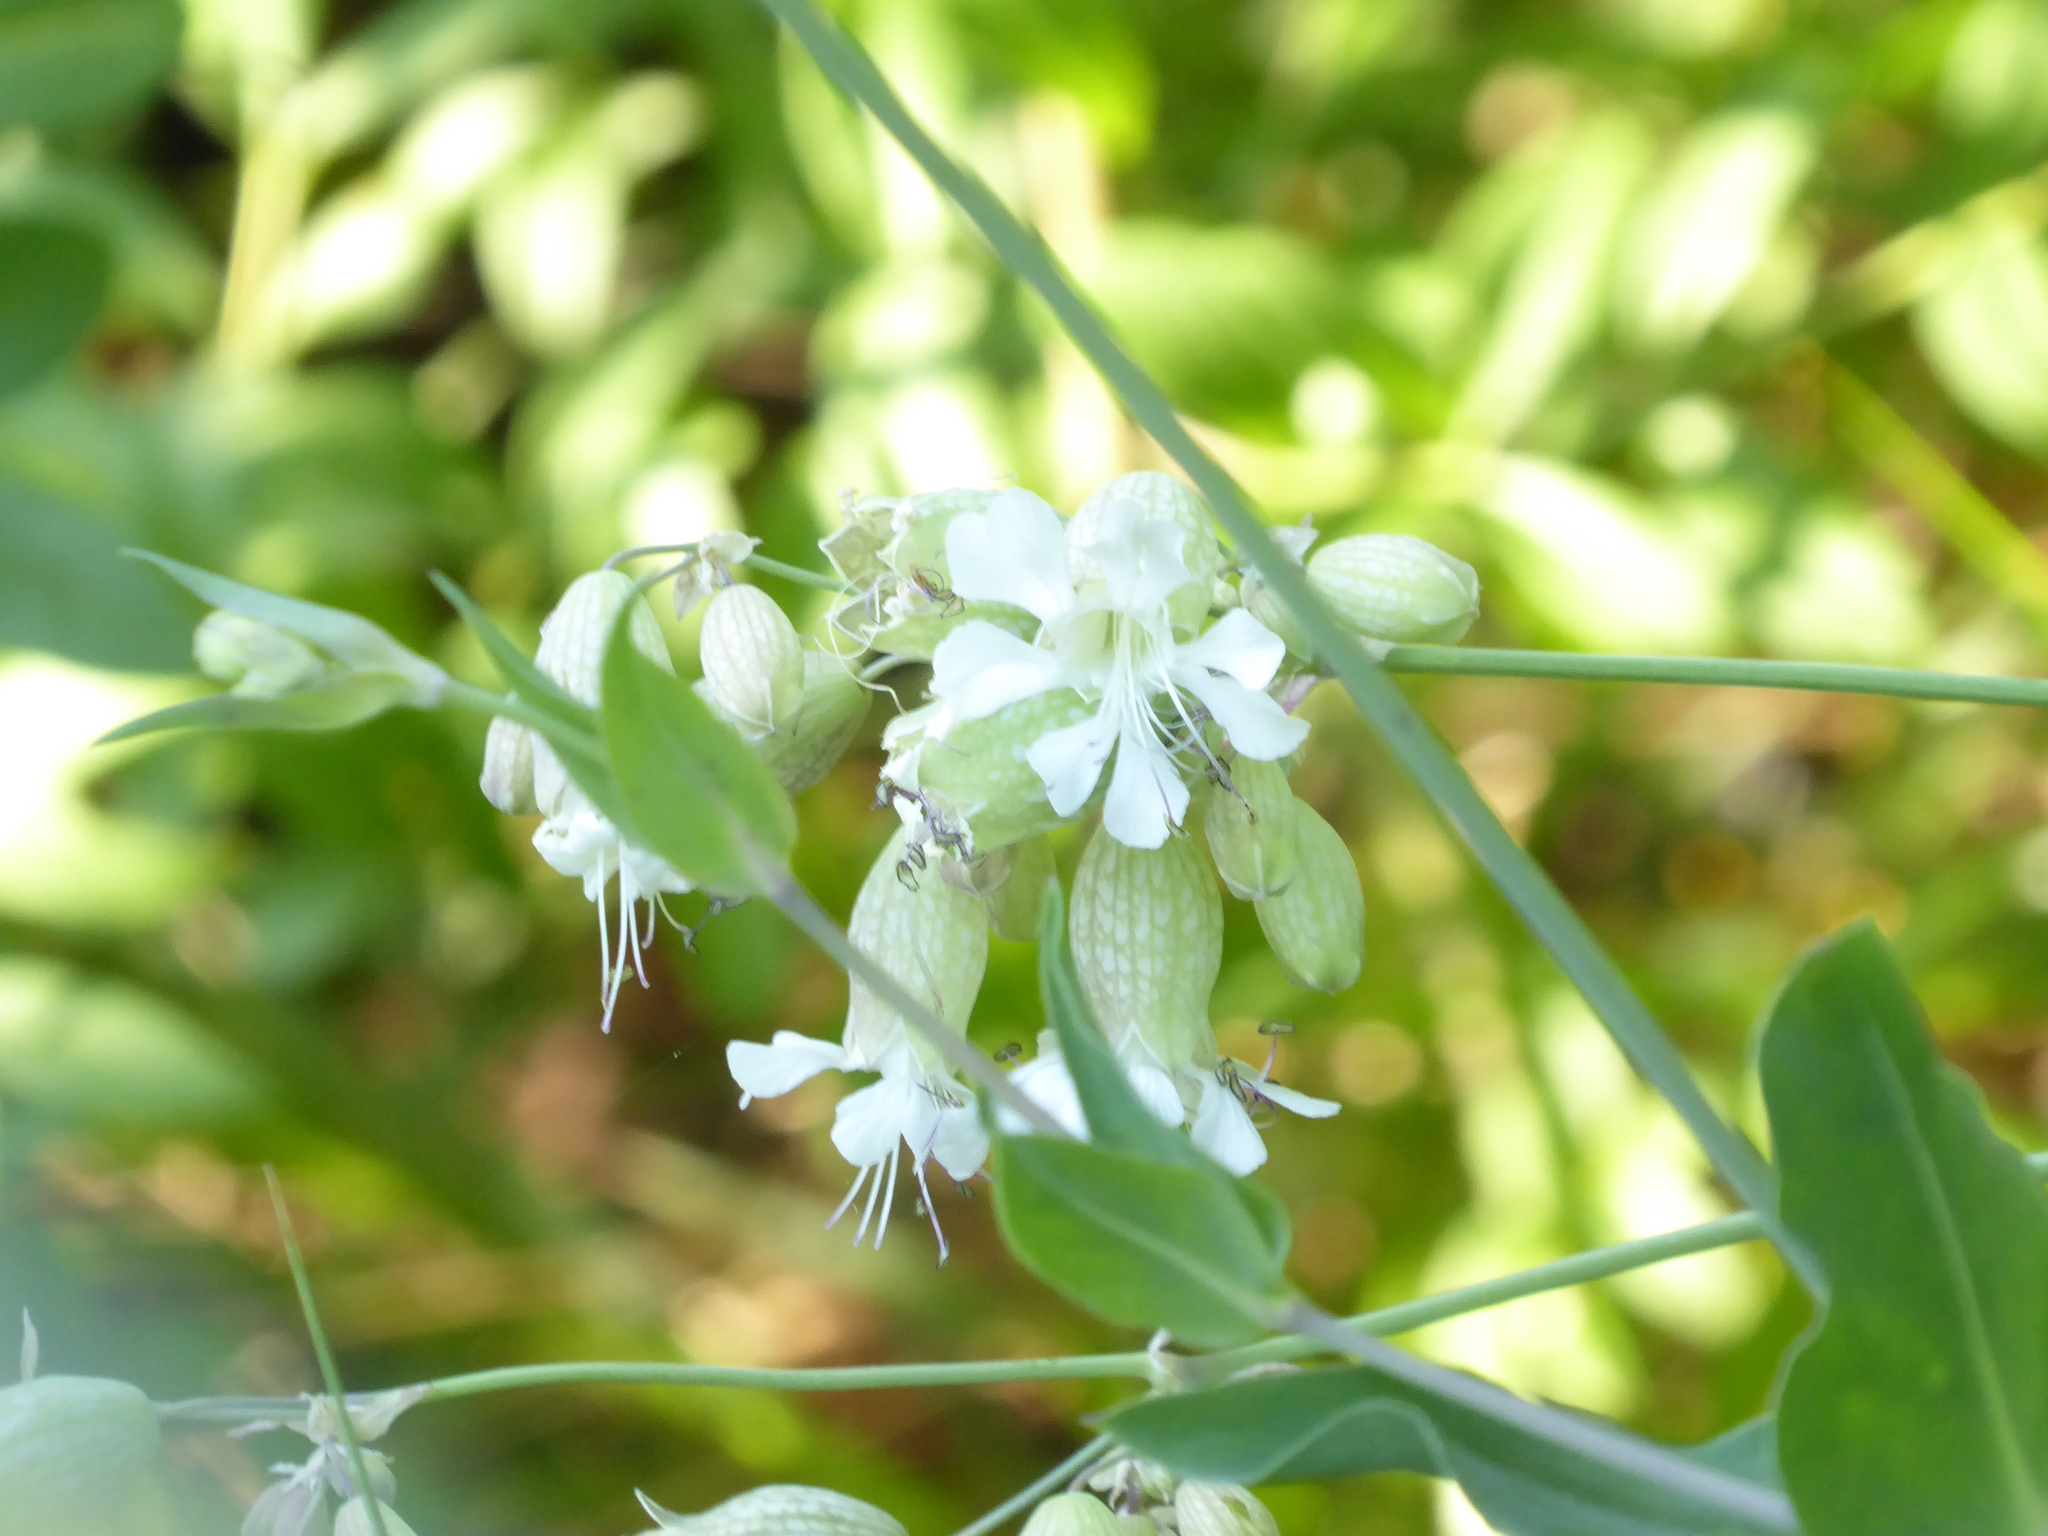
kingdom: Plantae
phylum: Tracheophyta
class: Magnoliopsida
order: Caryophyllales
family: Caryophyllaceae
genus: Silene
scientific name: Silene vulgaris
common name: Bladder campion
